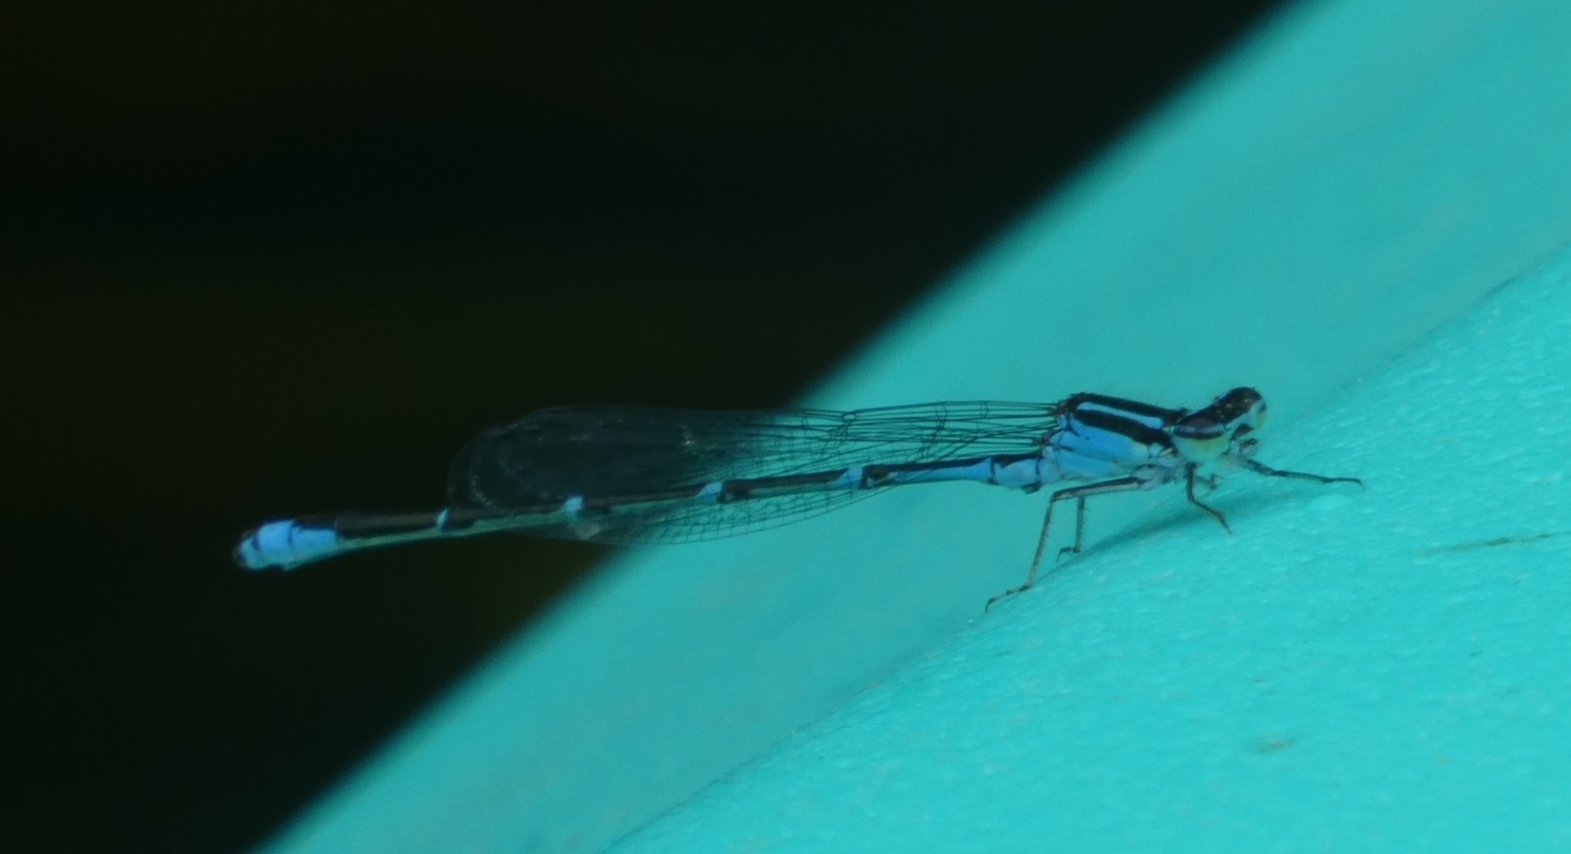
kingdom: Animalia
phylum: Arthropoda
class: Insecta
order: Odonata
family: Coenagrionidae
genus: Enallagma
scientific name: Enallagma exsulans
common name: Stream bluet
